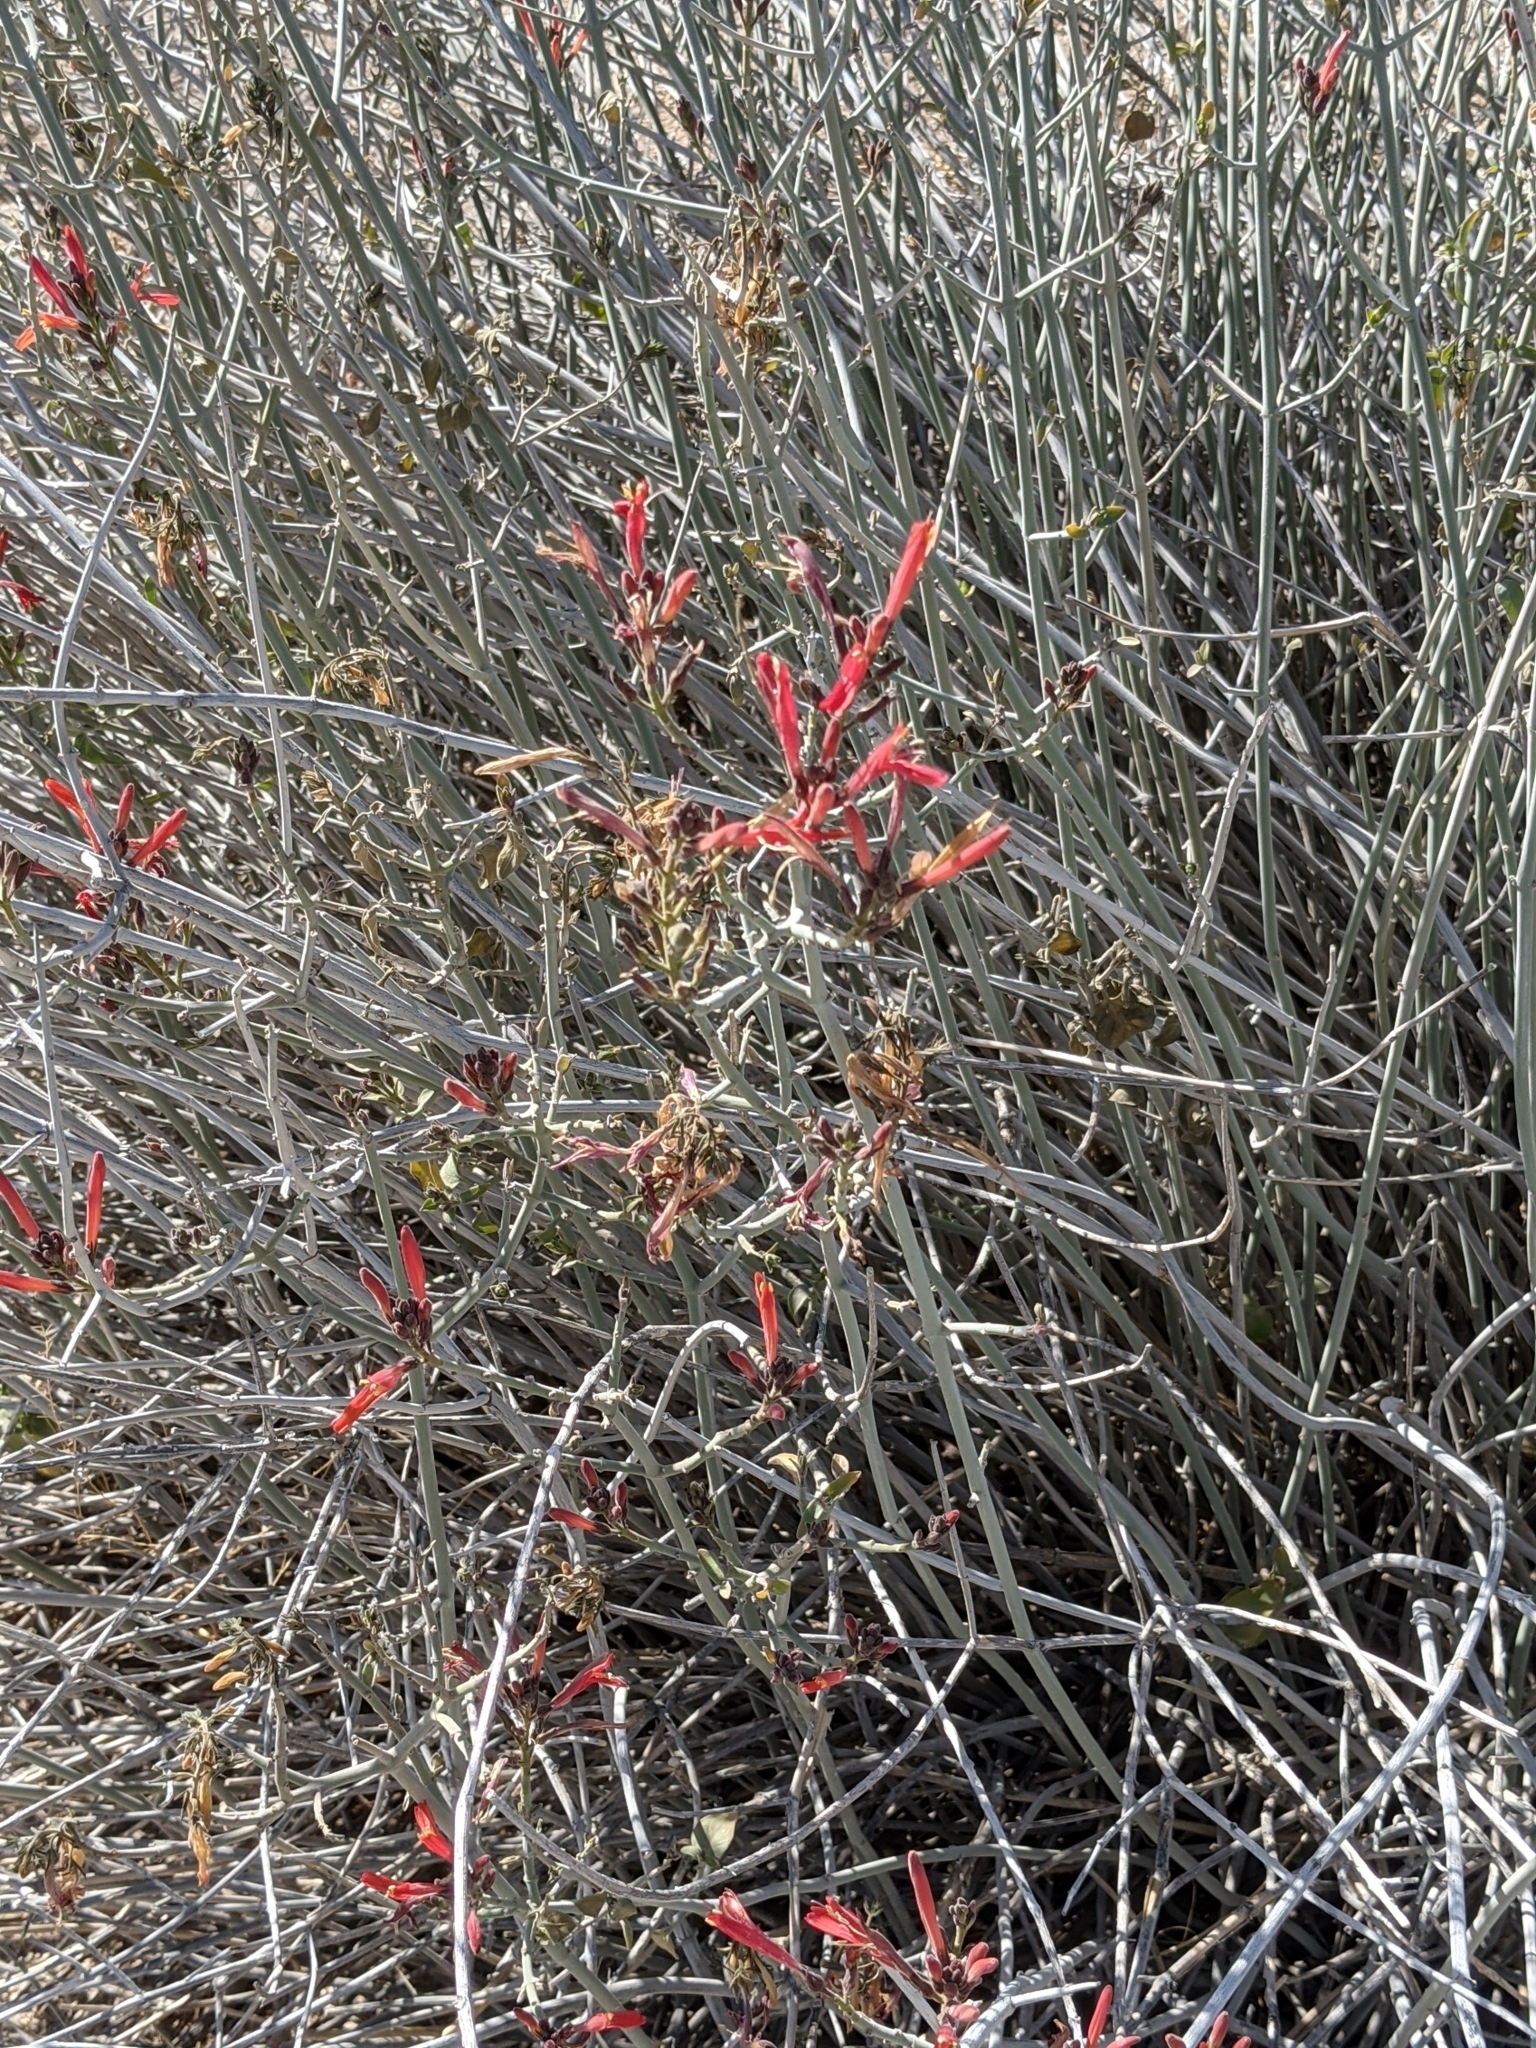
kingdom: Plantae
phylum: Tracheophyta
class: Magnoliopsida
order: Lamiales
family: Acanthaceae
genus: Justicia
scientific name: Justicia californica
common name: Chuparosa-honeysuckle
